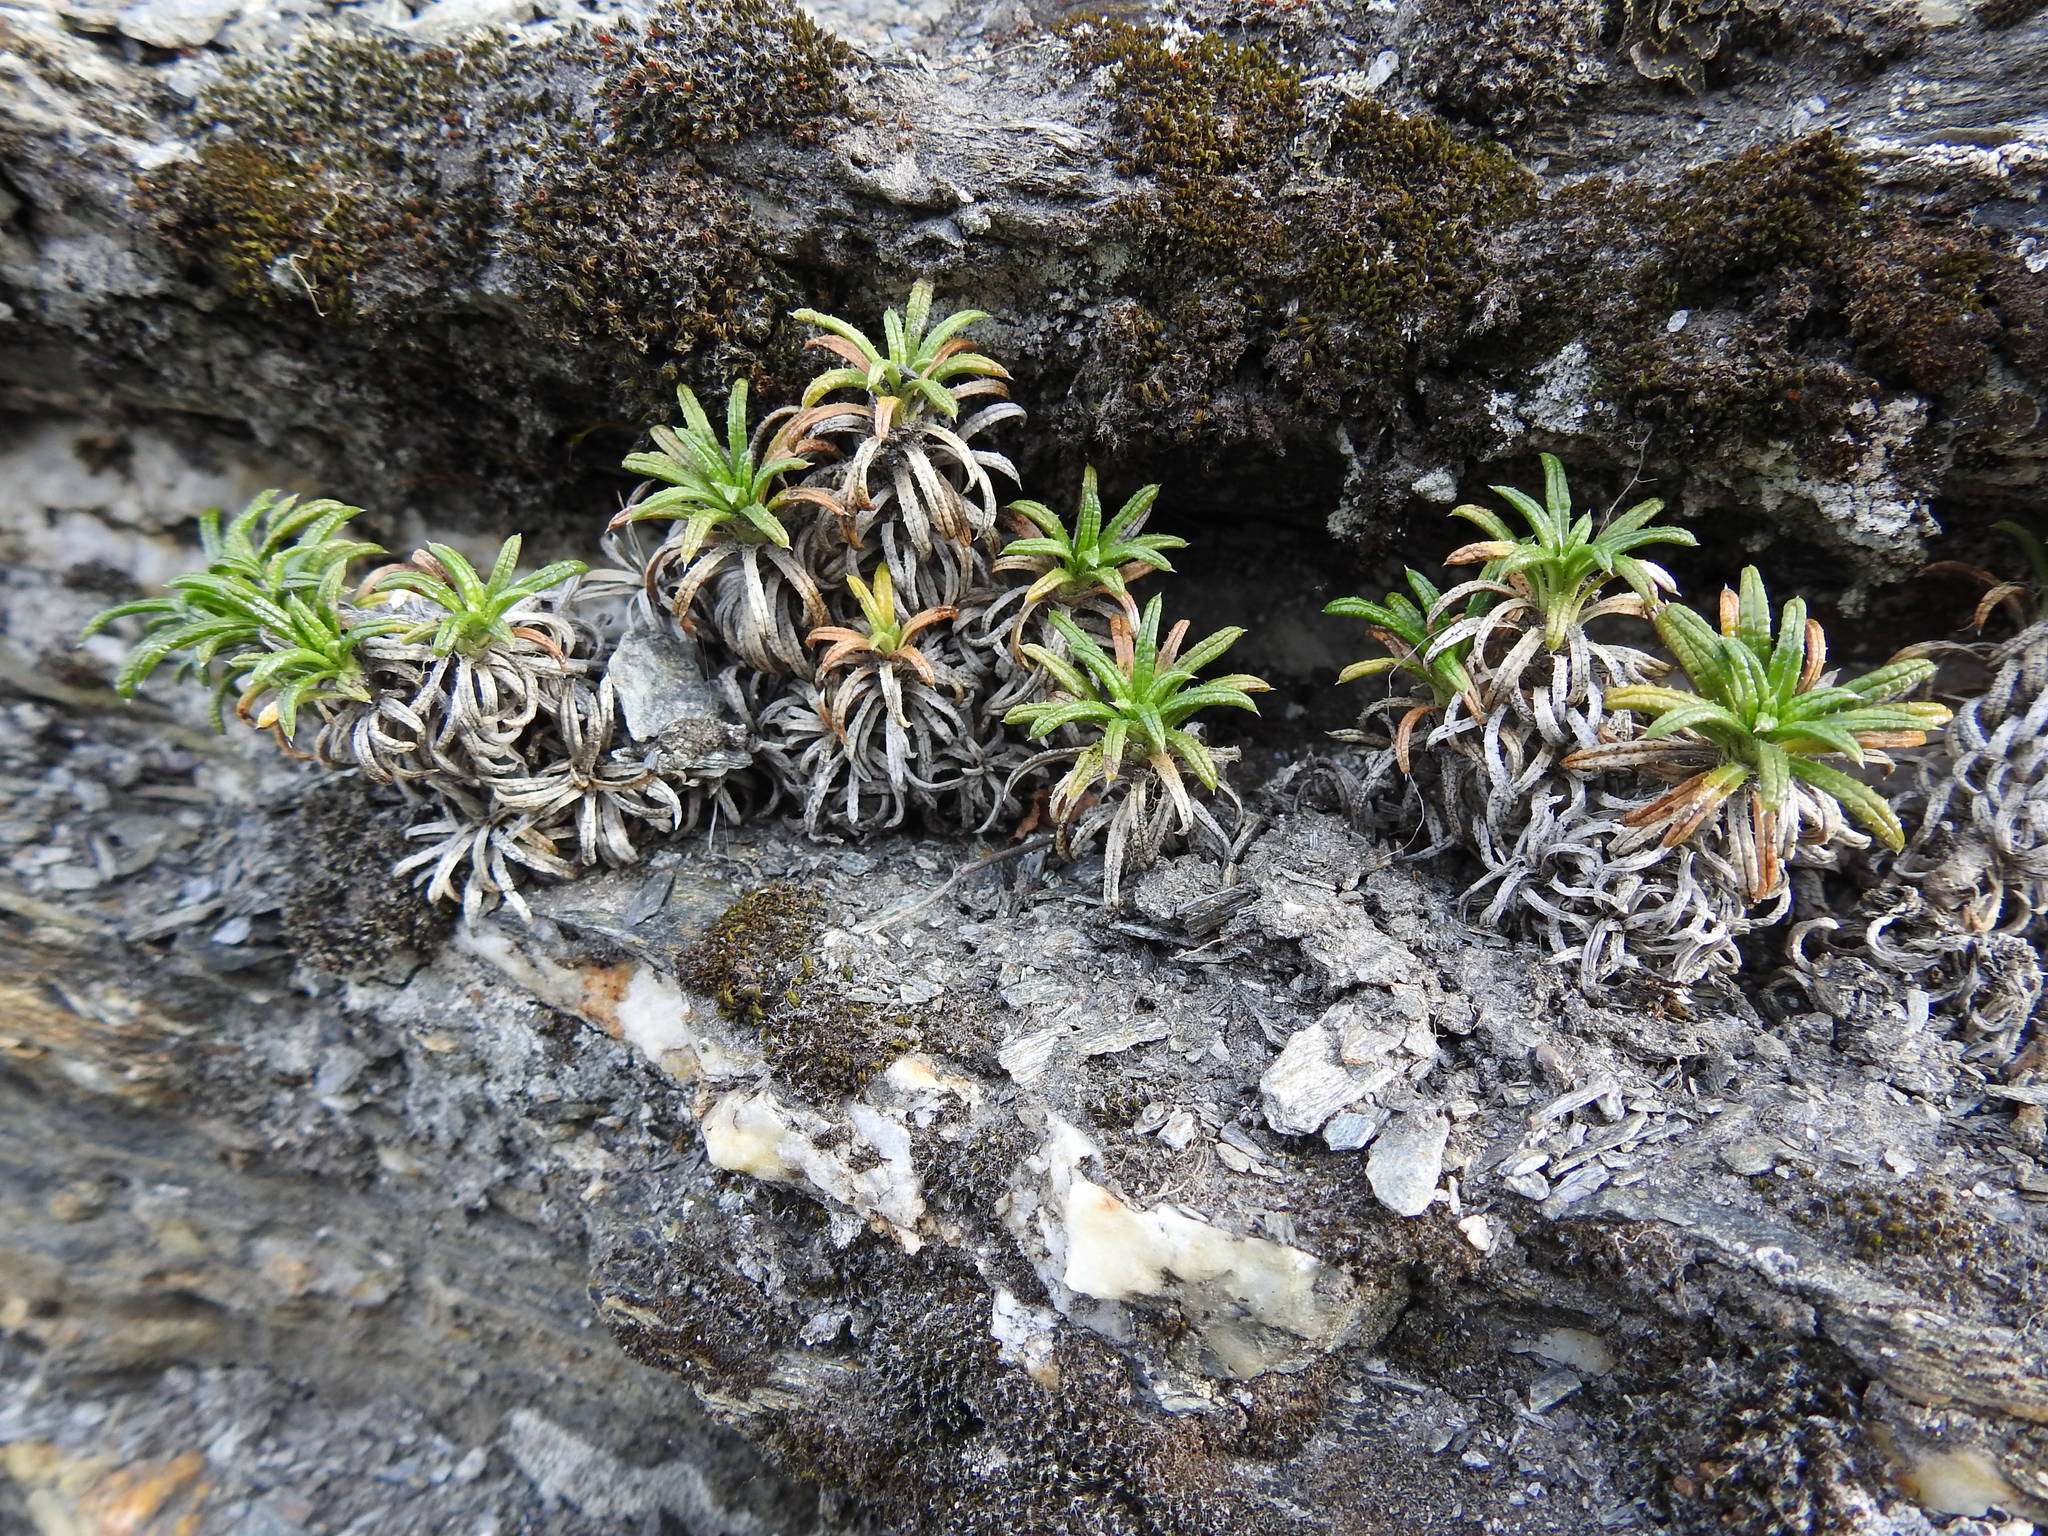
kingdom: Plantae
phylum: Tracheophyta
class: Magnoliopsida
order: Asterales
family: Asteraceae
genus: Perezia
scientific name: Perezia recurvata
